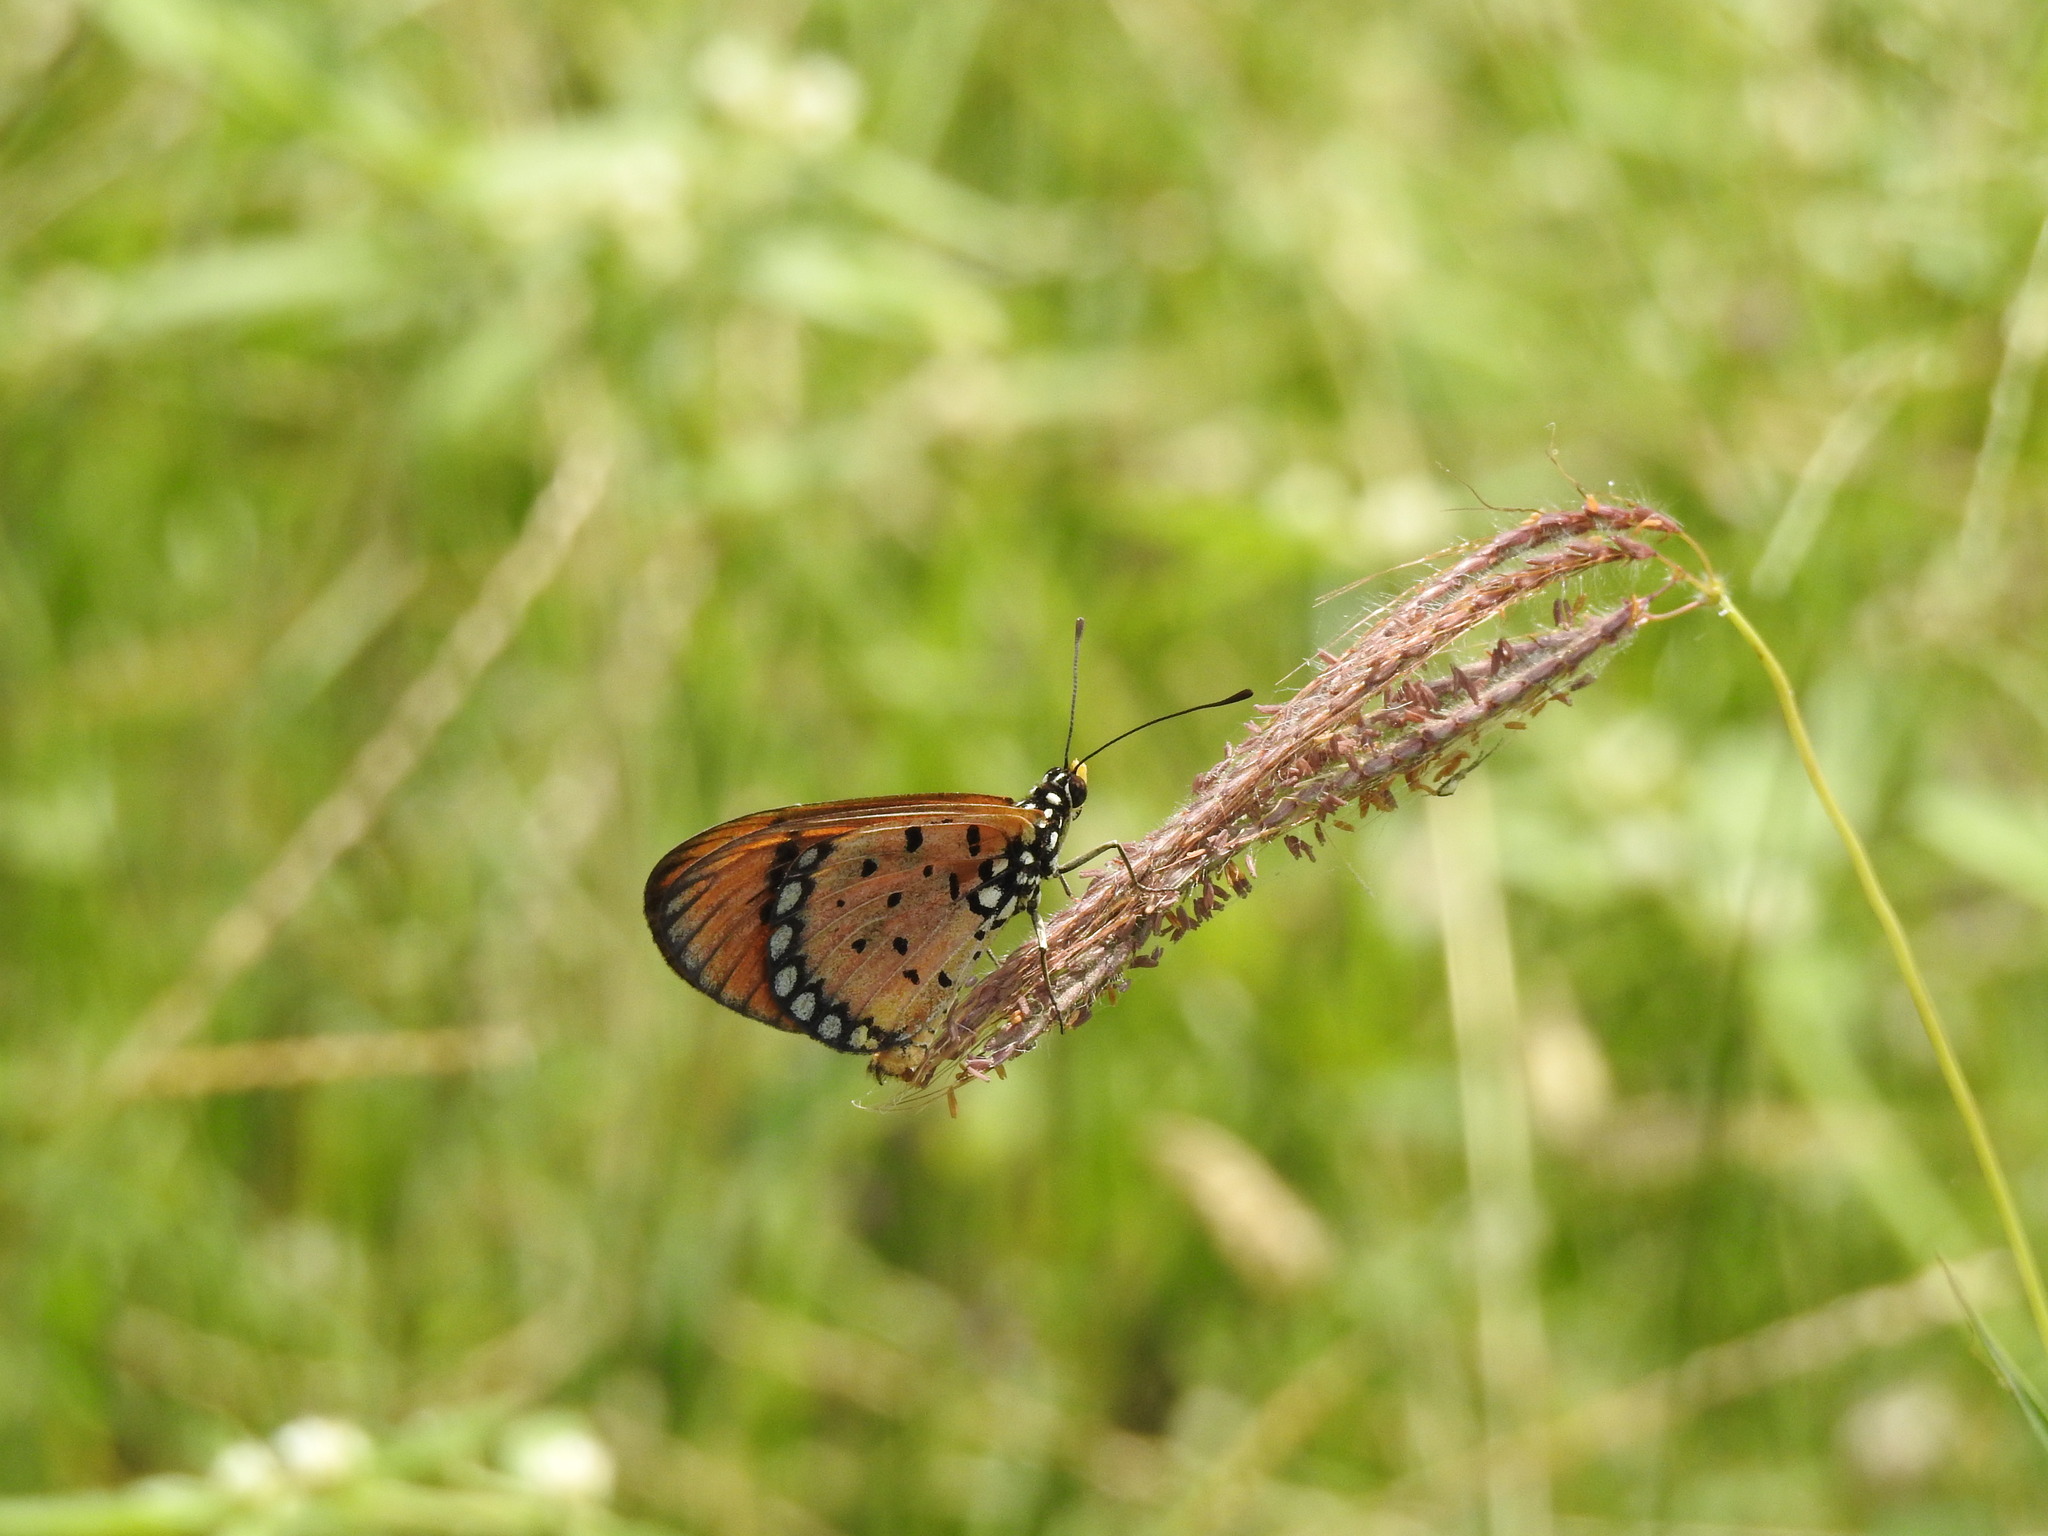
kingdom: Animalia
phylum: Arthropoda
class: Insecta
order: Lepidoptera
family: Nymphalidae
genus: Acraea
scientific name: Acraea terpsicore
